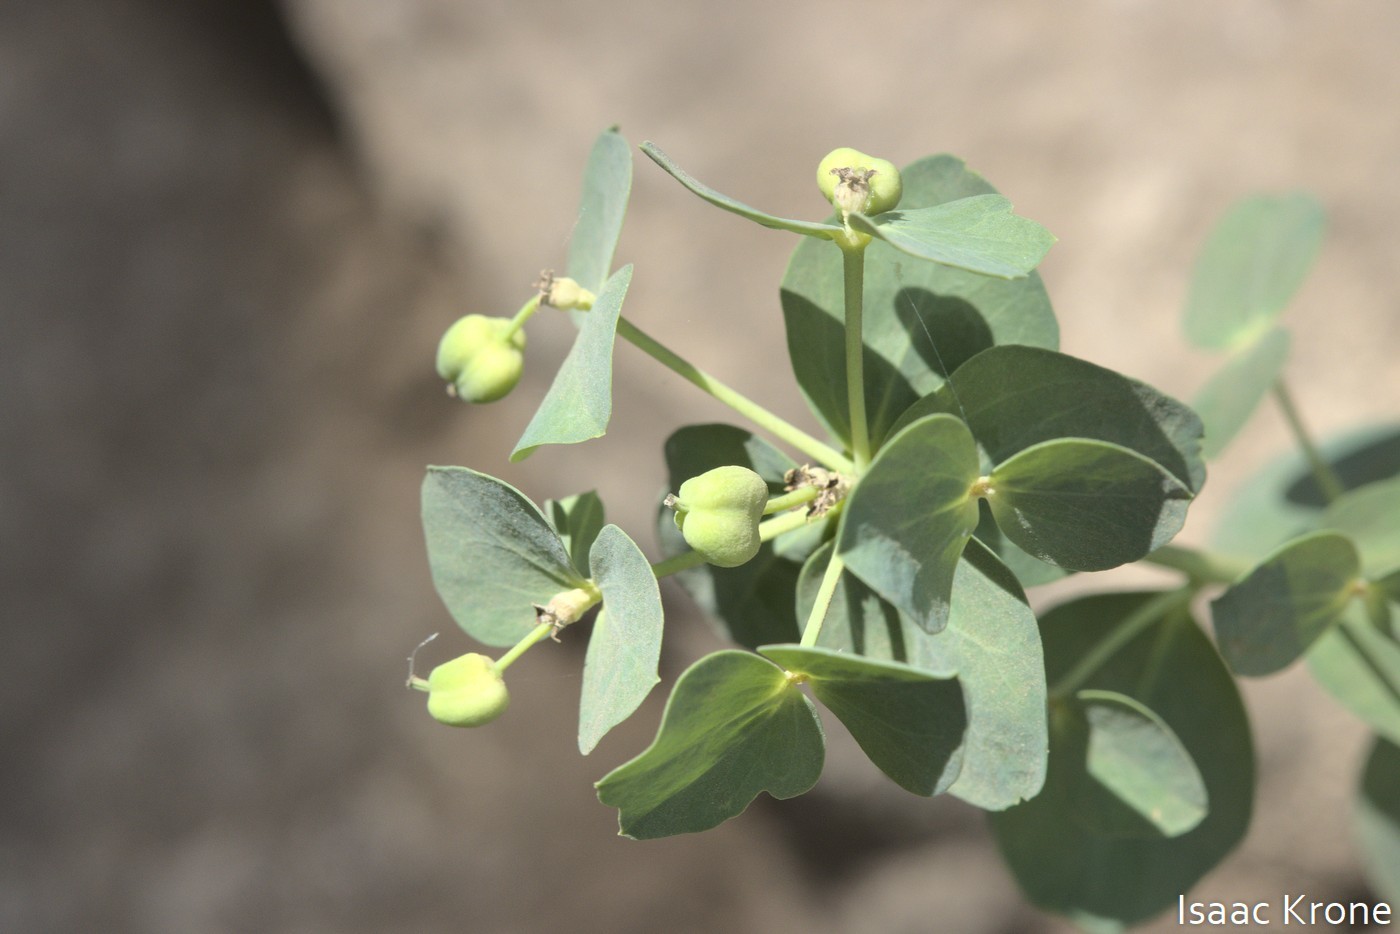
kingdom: Plantae
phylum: Tracheophyta
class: Magnoliopsida
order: Malpighiales
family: Euphorbiaceae
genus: Euphorbia
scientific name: Euphorbia brachycera
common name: Shorthorn spurge
